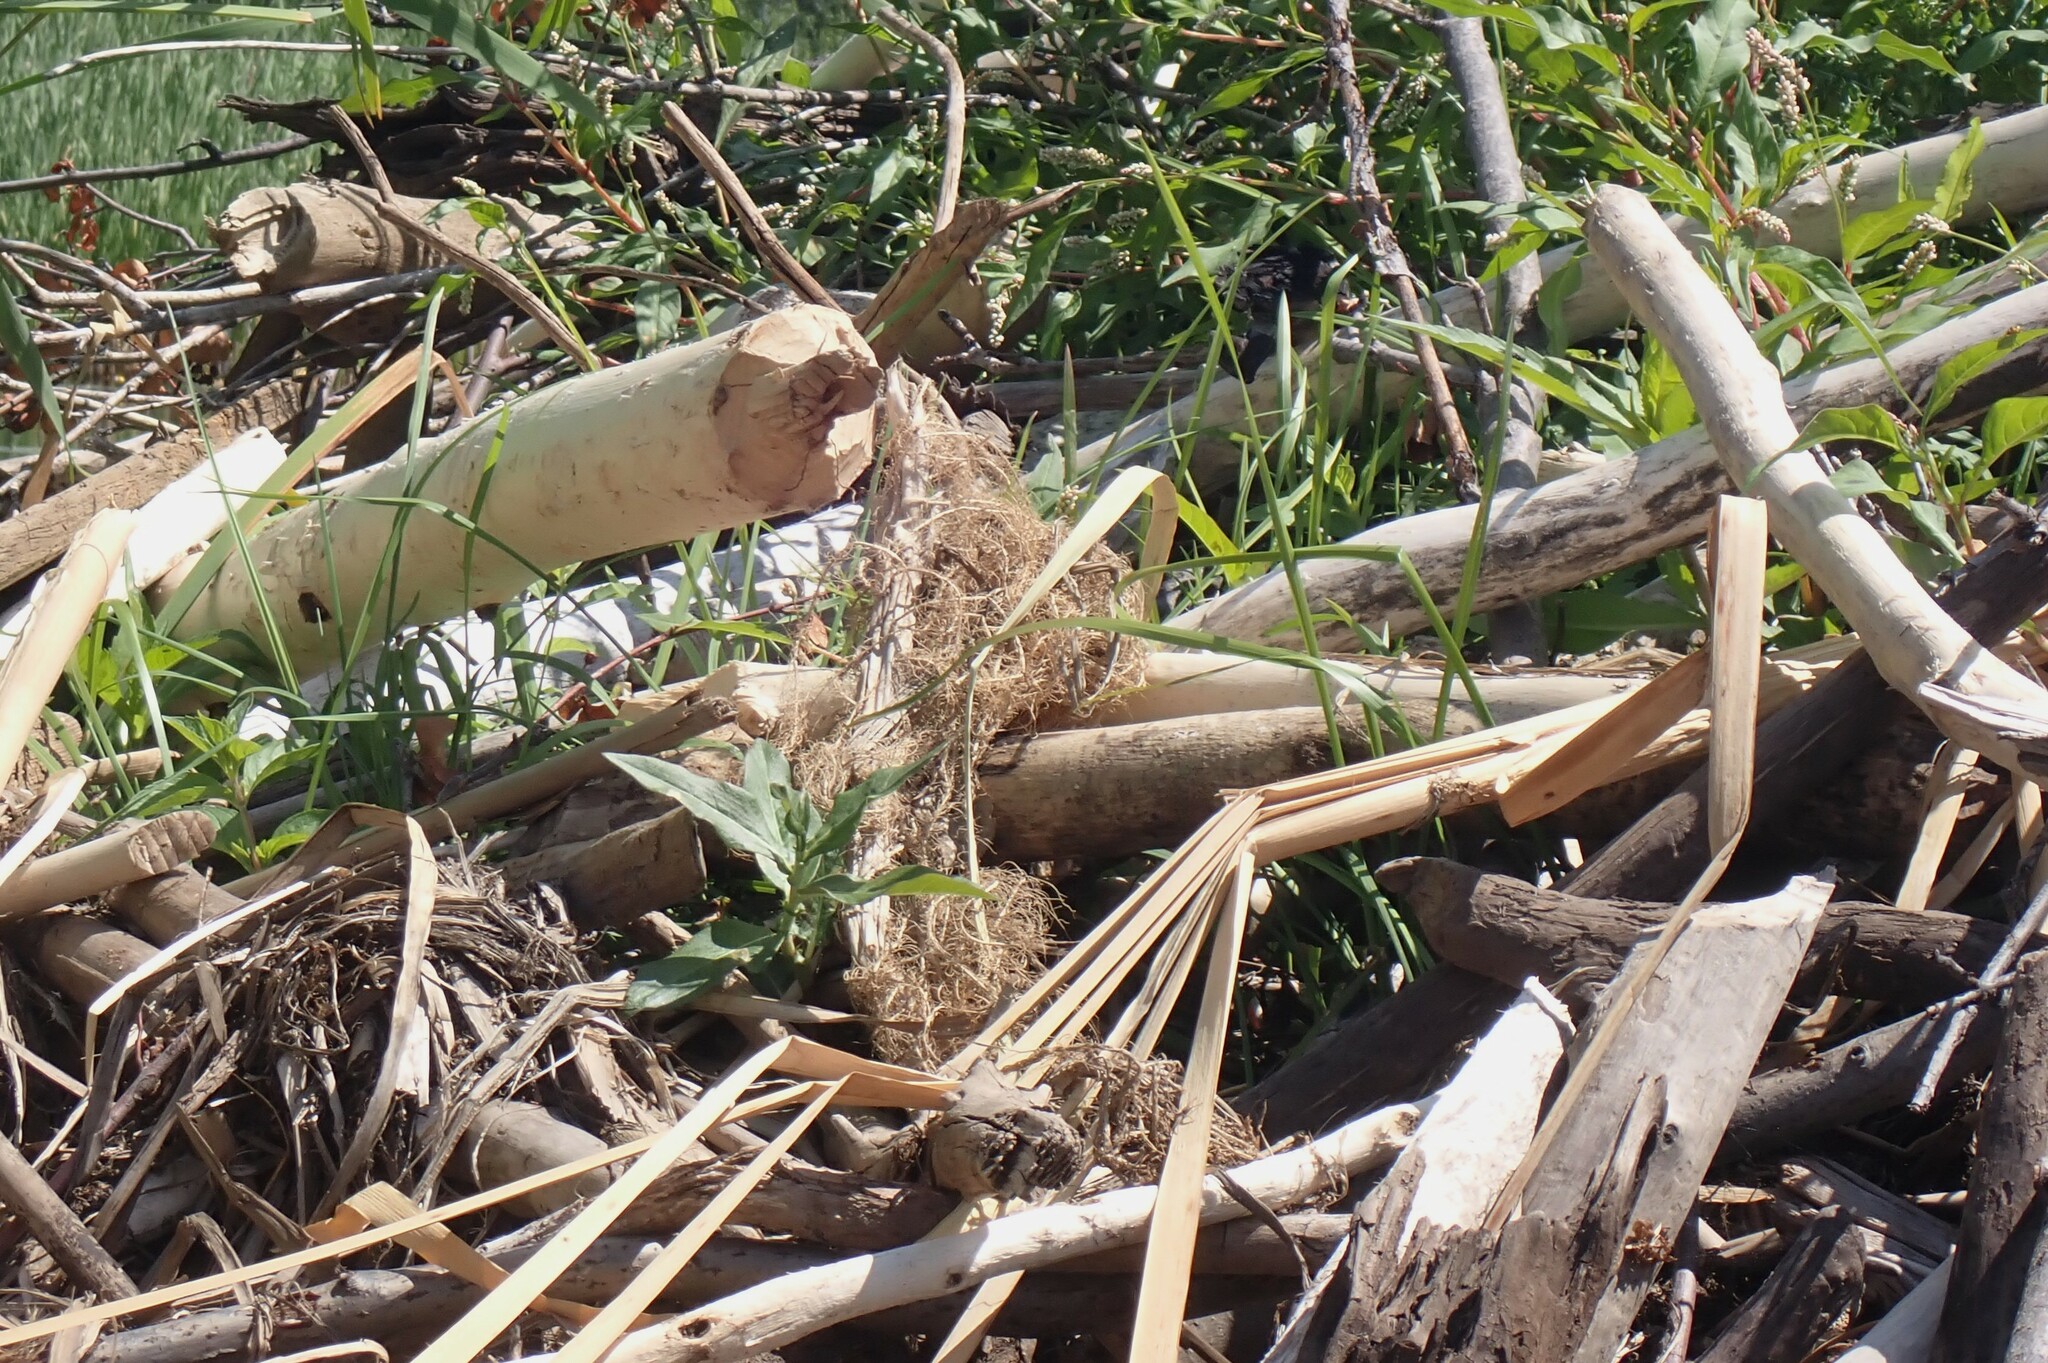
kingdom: Animalia
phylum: Chordata
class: Mammalia
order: Rodentia
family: Castoridae
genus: Castor
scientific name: Castor canadensis
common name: American beaver
